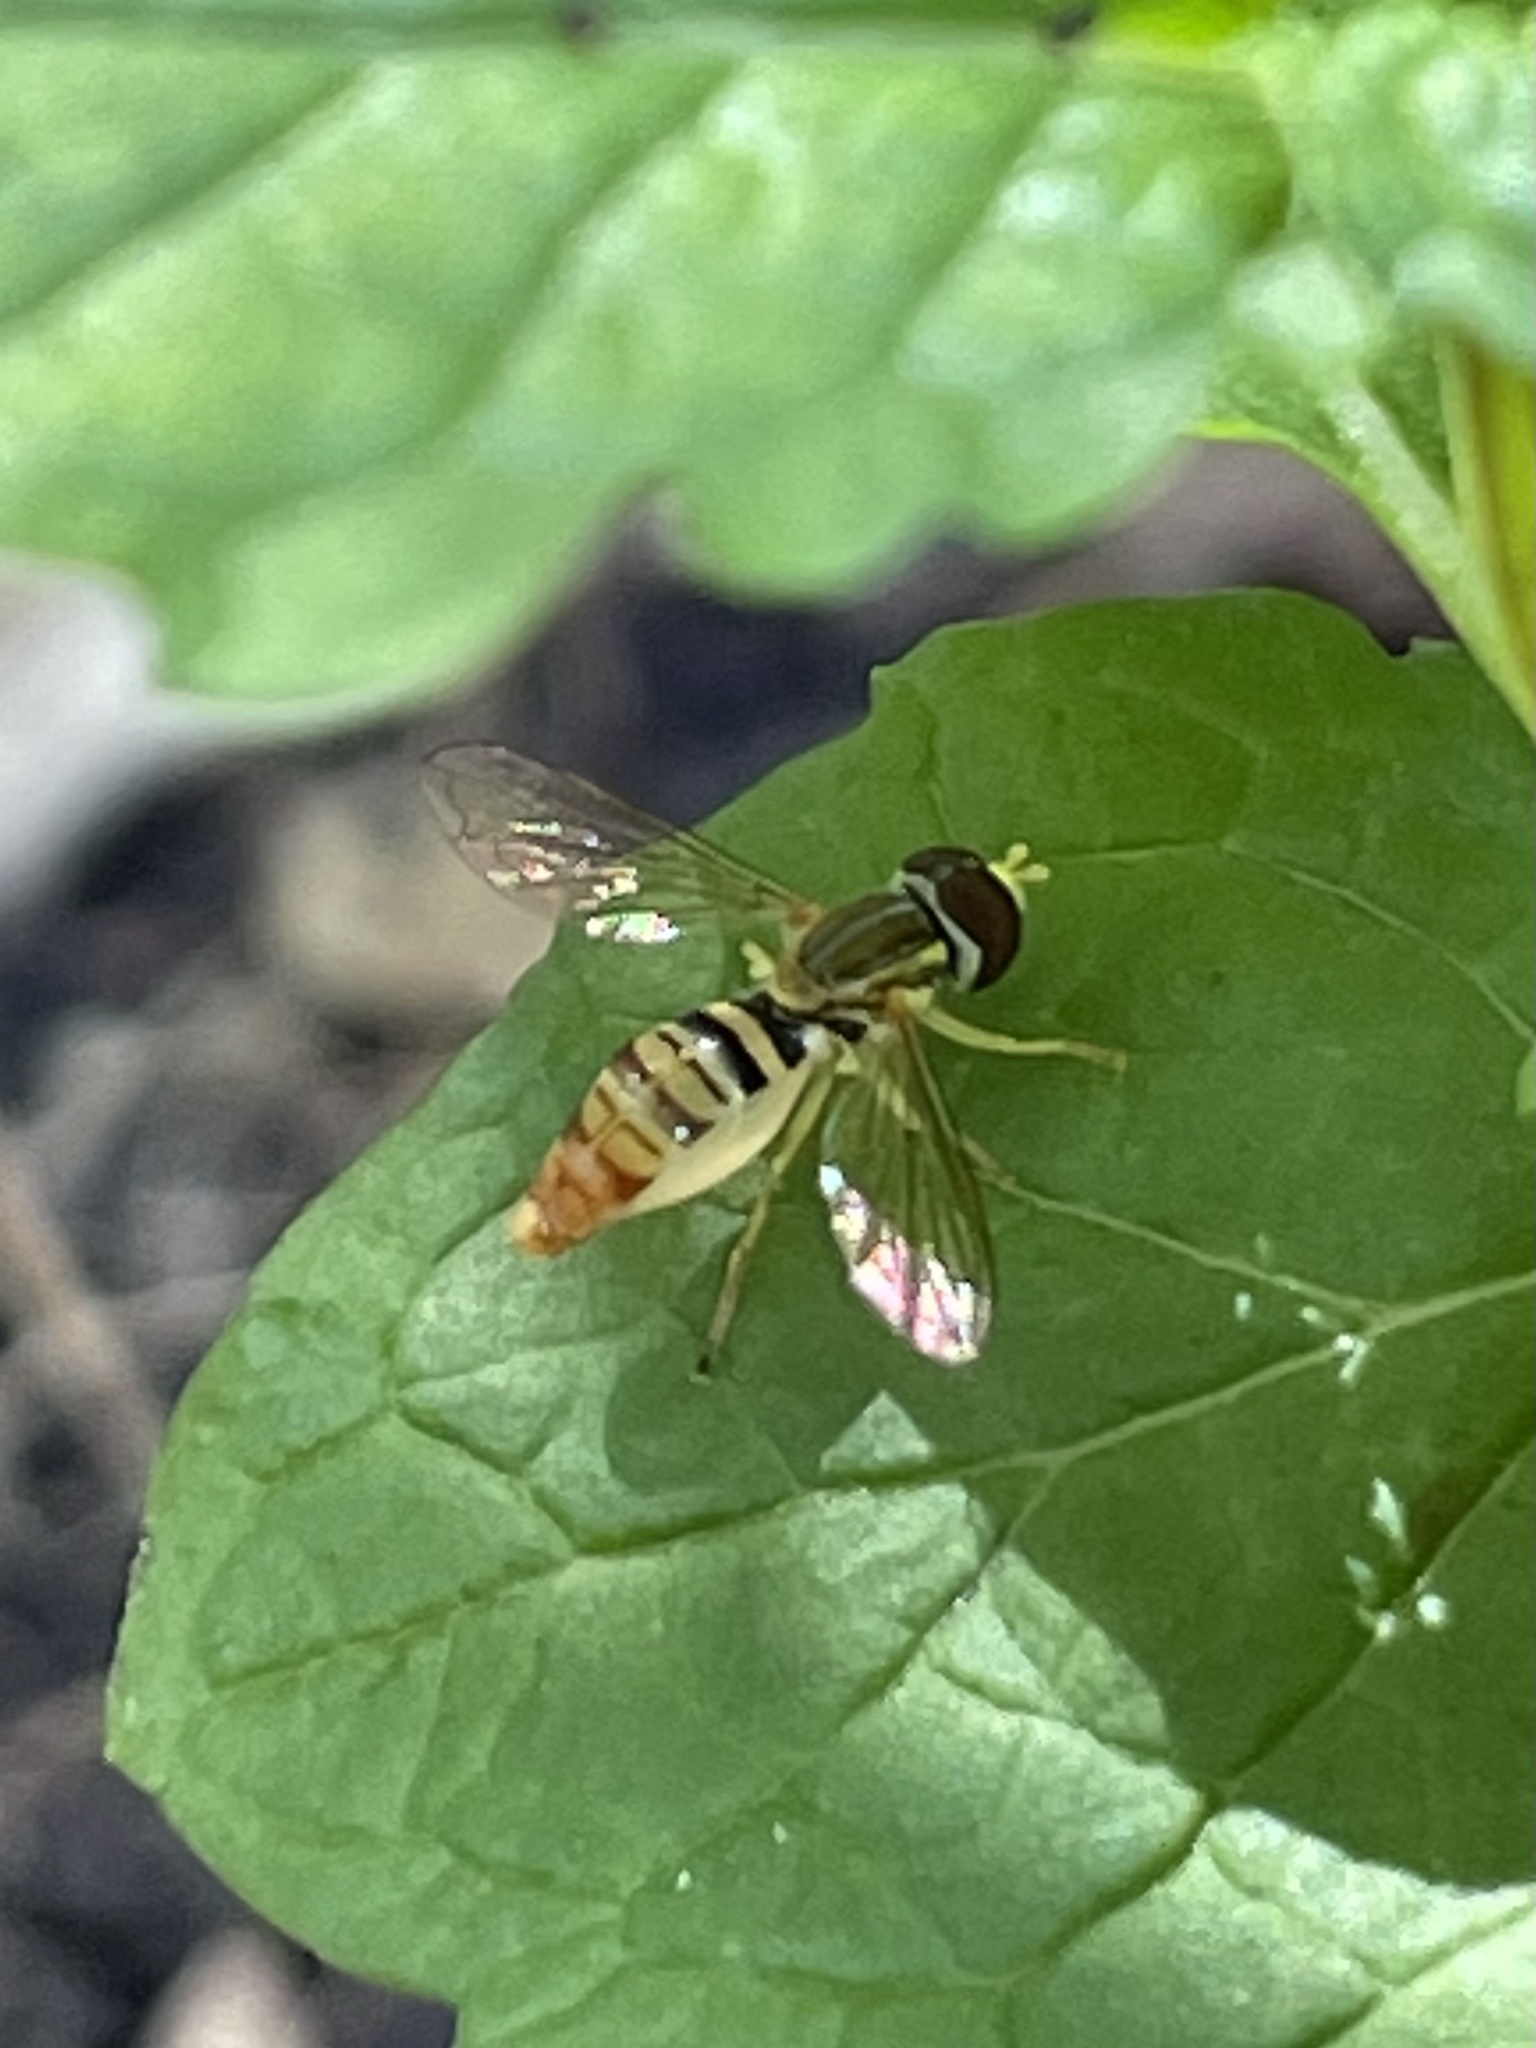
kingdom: Animalia
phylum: Arthropoda
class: Insecta
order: Diptera
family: Syrphidae
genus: Toxomerus
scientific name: Toxomerus politus
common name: Maize calligrapher
